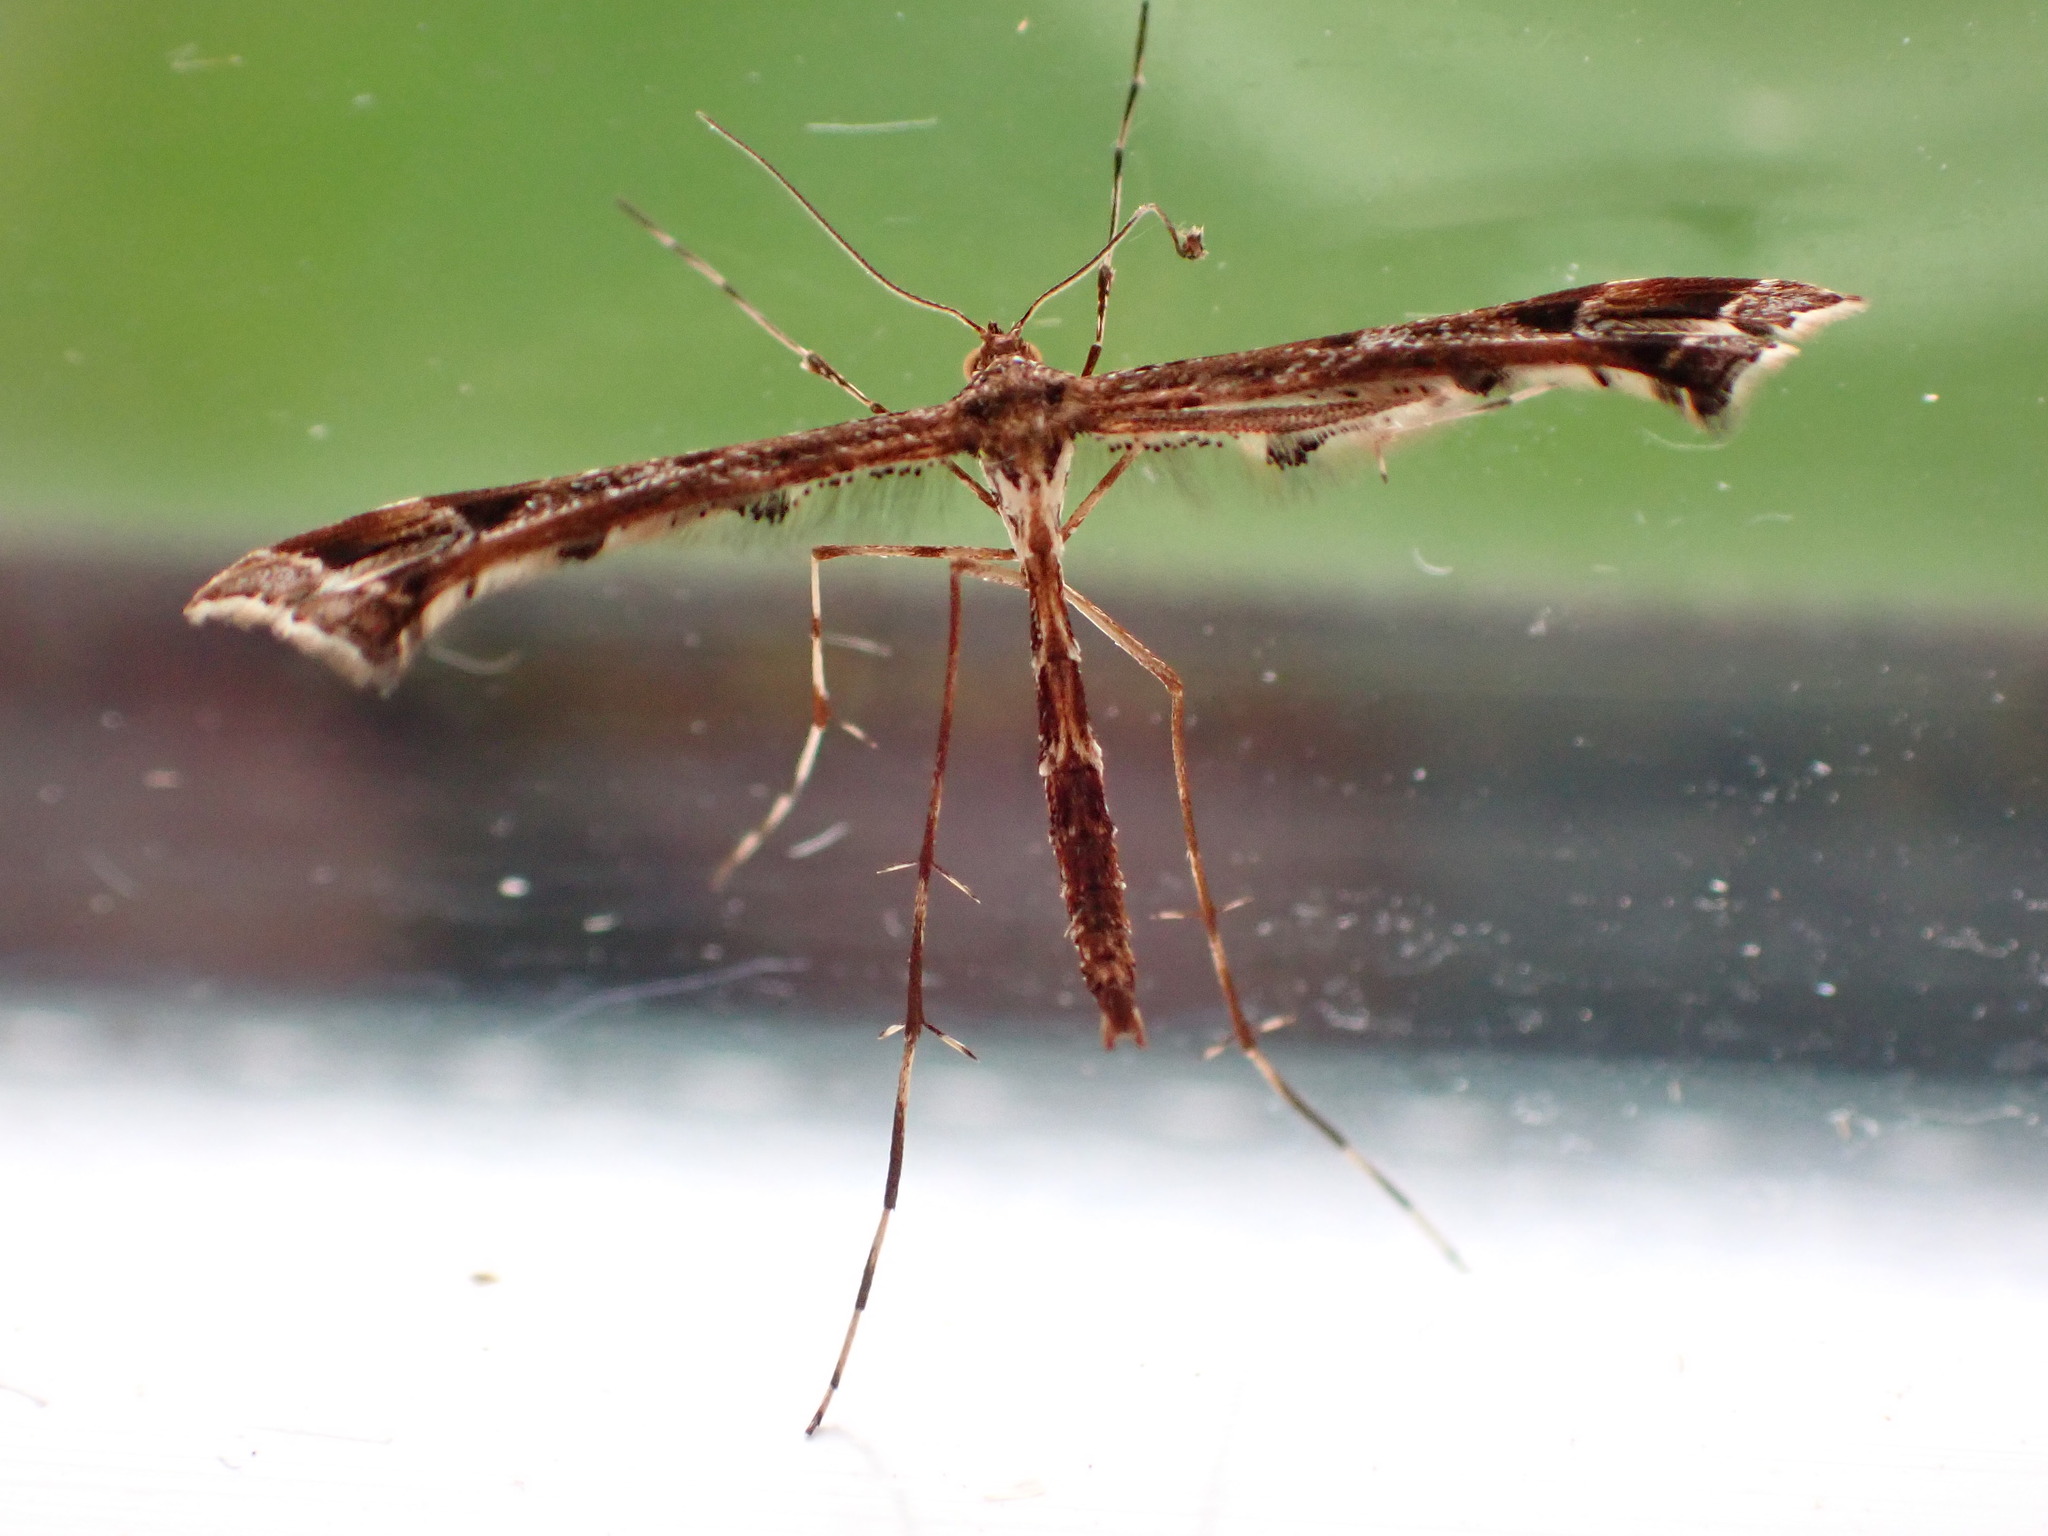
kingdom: Animalia
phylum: Arthropoda
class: Insecta
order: Lepidoptera
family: Pterophoridae
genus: Amblyptilia
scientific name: Amblyptilia acanthadactyla
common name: Beautiful plume
